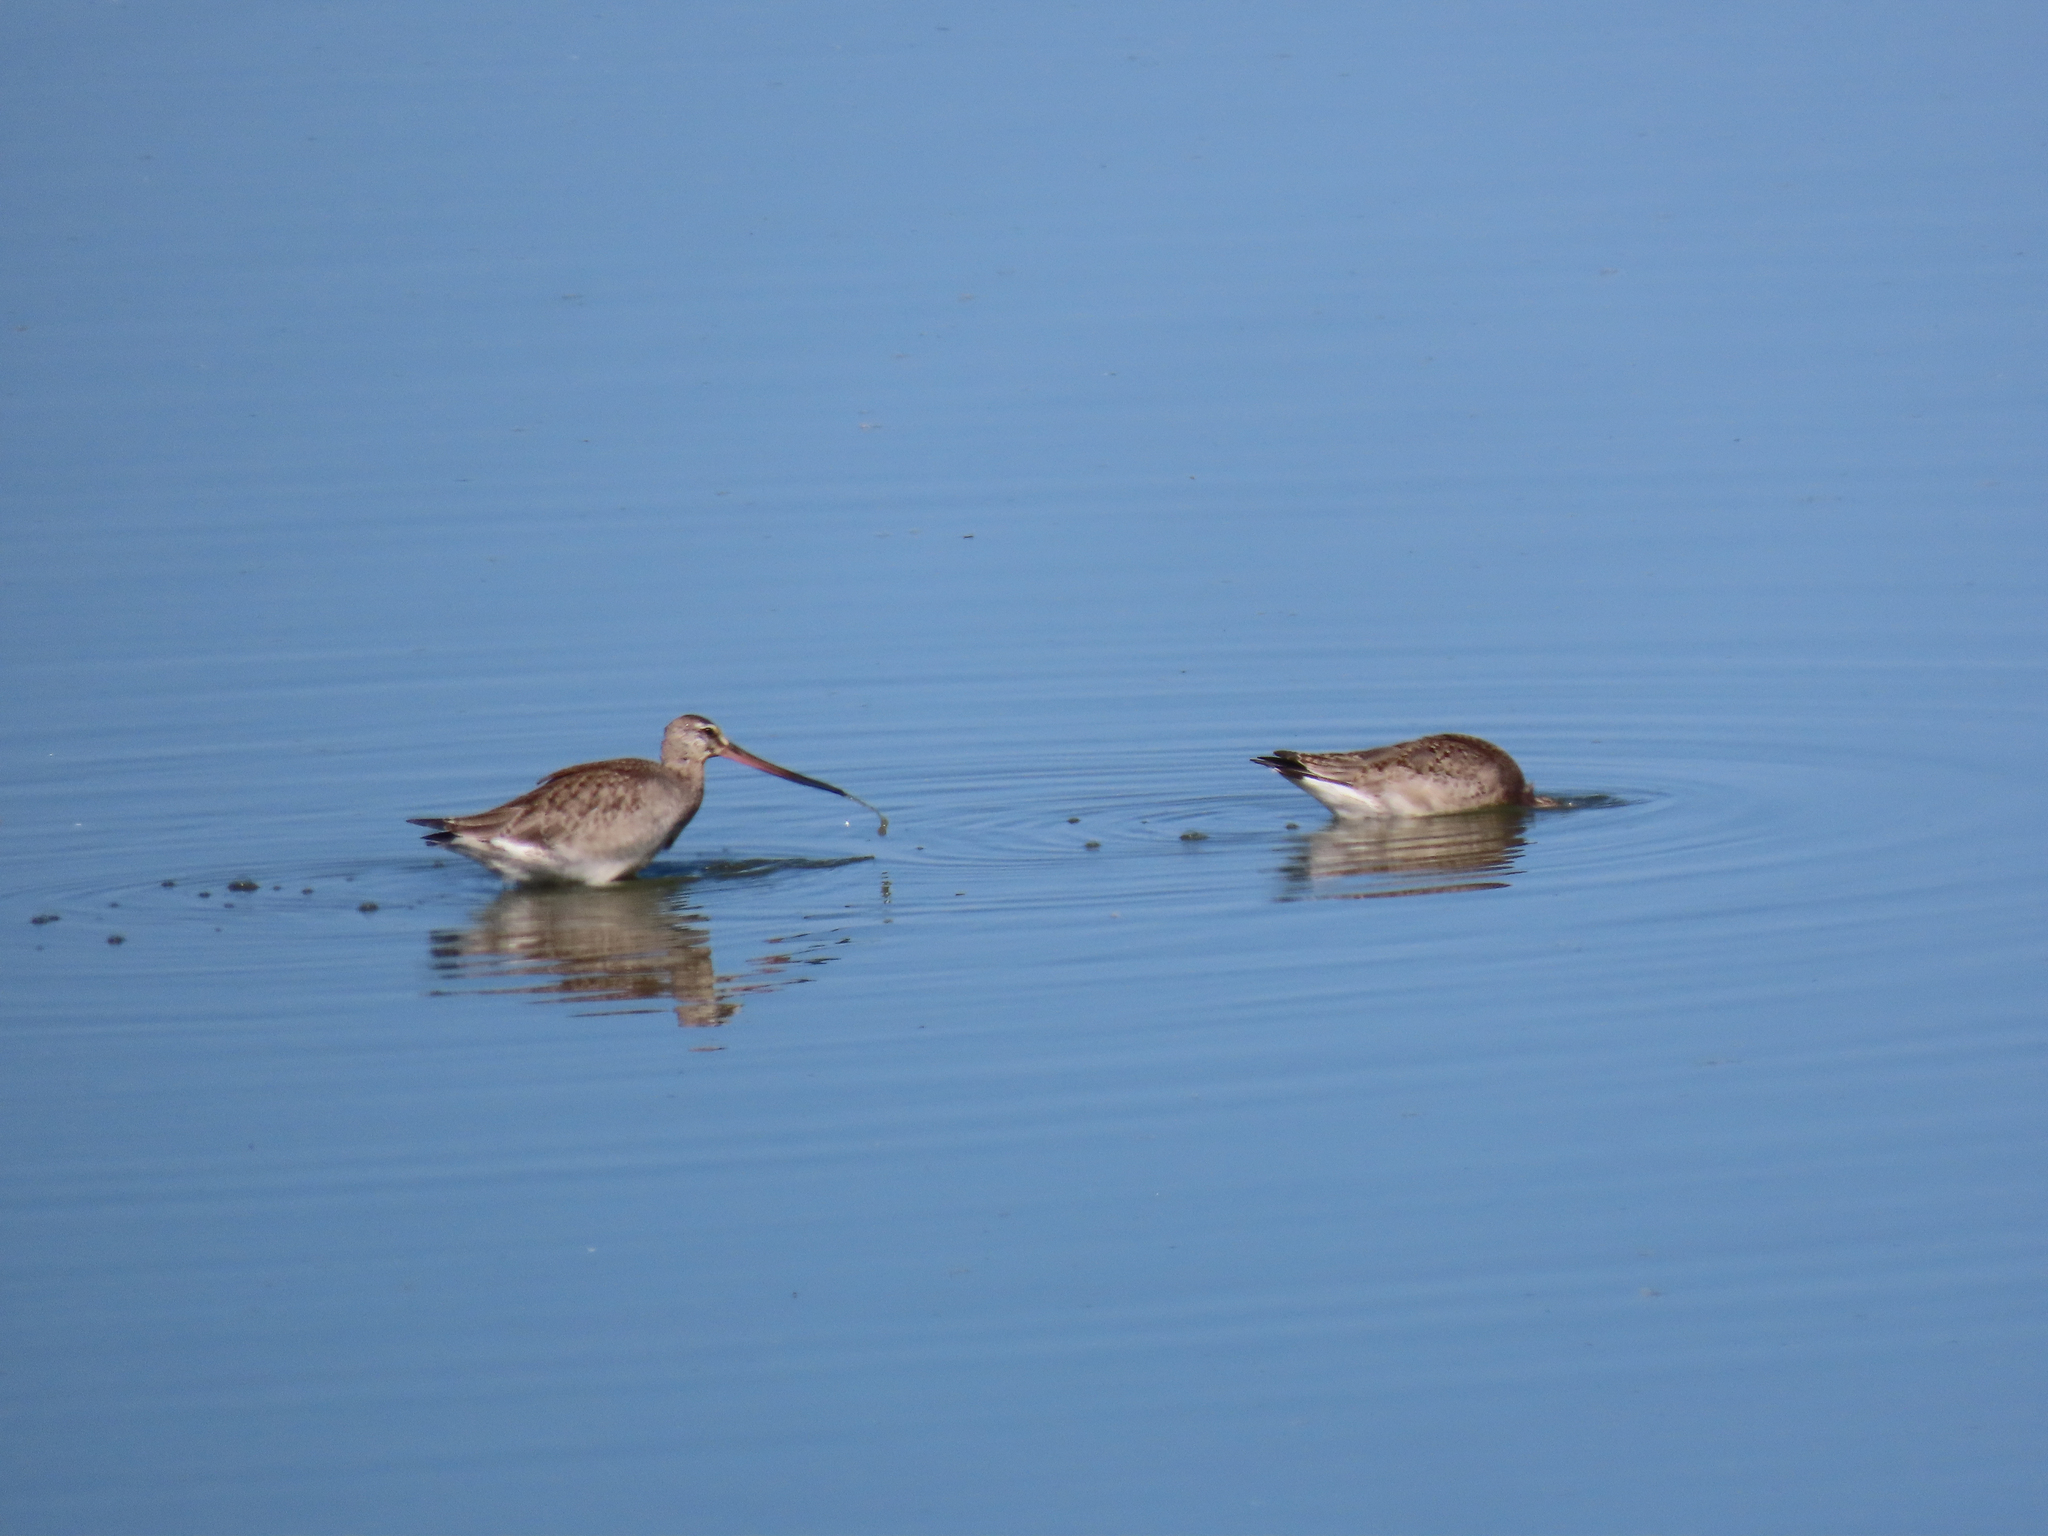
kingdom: Animalia
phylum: Chordata
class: Aves
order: Charadriiformes
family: Scolopacidae
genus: Limosa
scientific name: Limosa haemastica
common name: Hudsonian godwit
